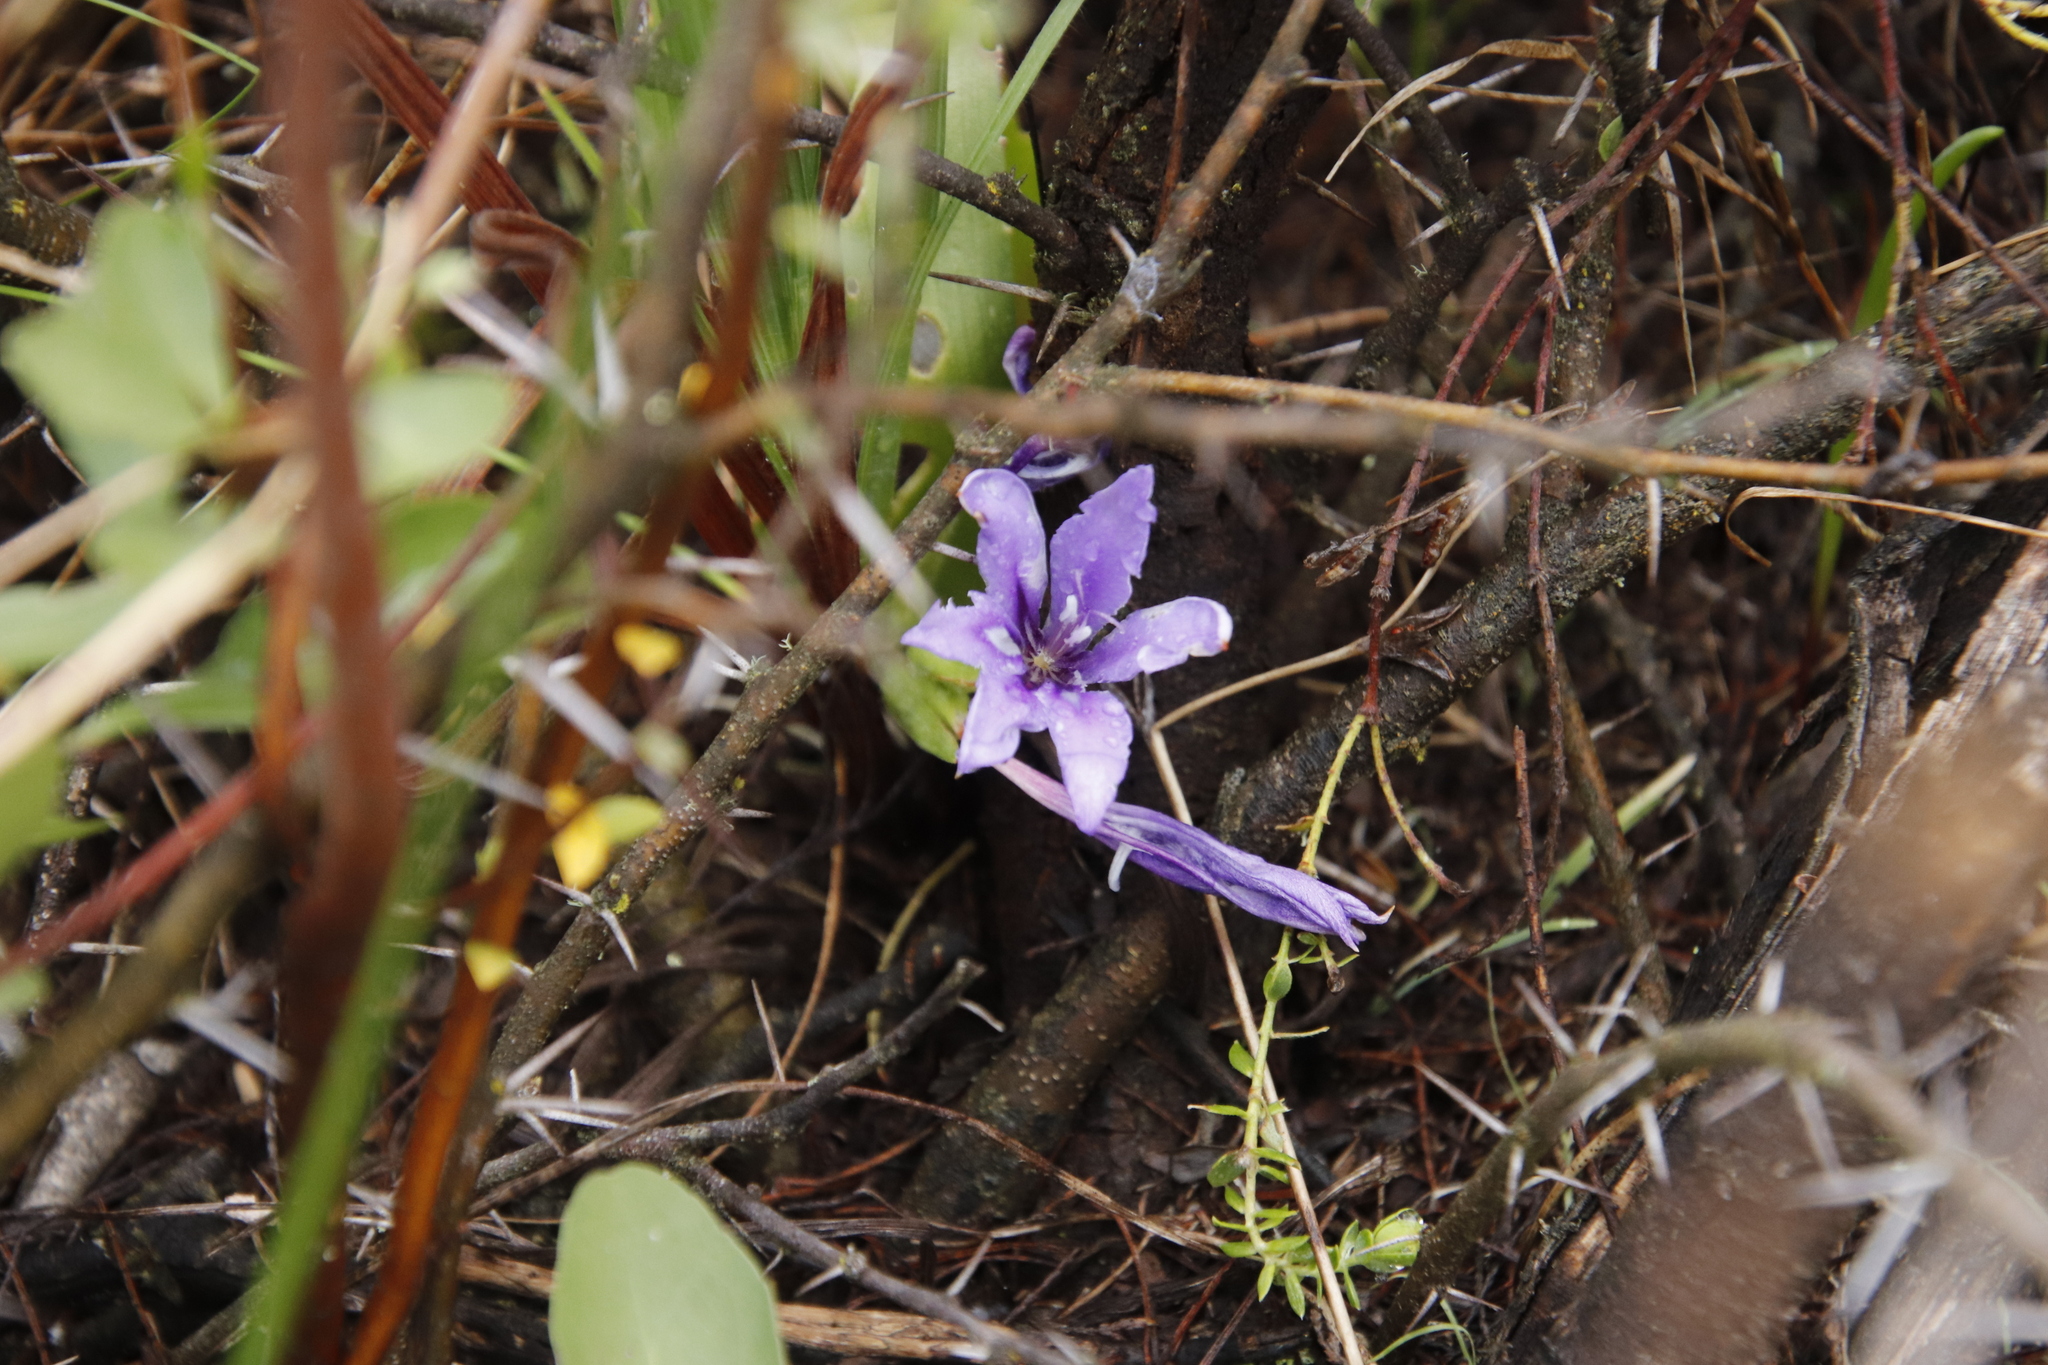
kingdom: Plantae
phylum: Tracheophyta
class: Liliopsida
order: Asparagales
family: Iridaceae
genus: Babiana
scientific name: Babiana sambucina
